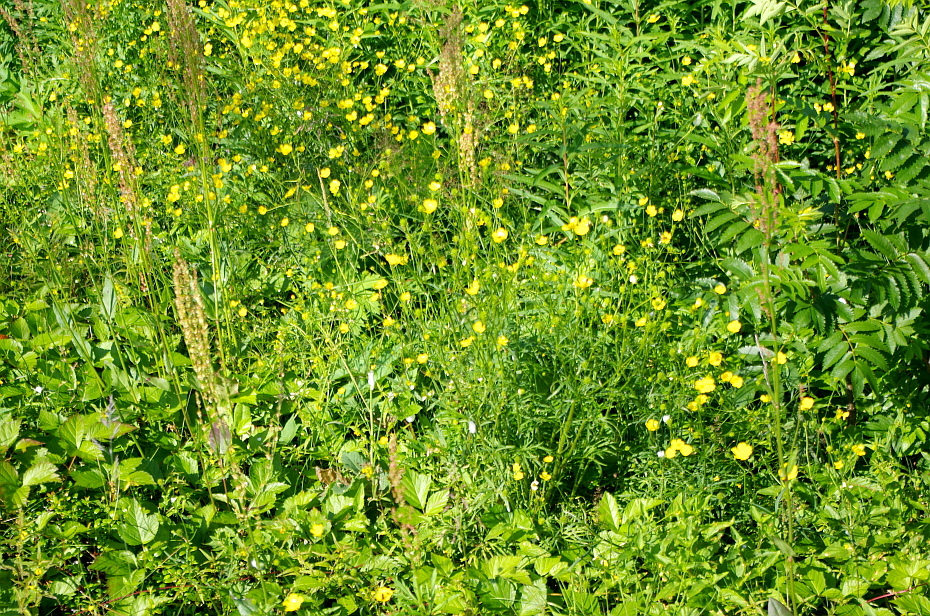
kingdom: Plantae
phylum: Tracheophyta
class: Magnoliopsida
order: Ranunculales
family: Ranunculaceae
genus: Ranunculus
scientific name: Ranunculus polyanthemos
